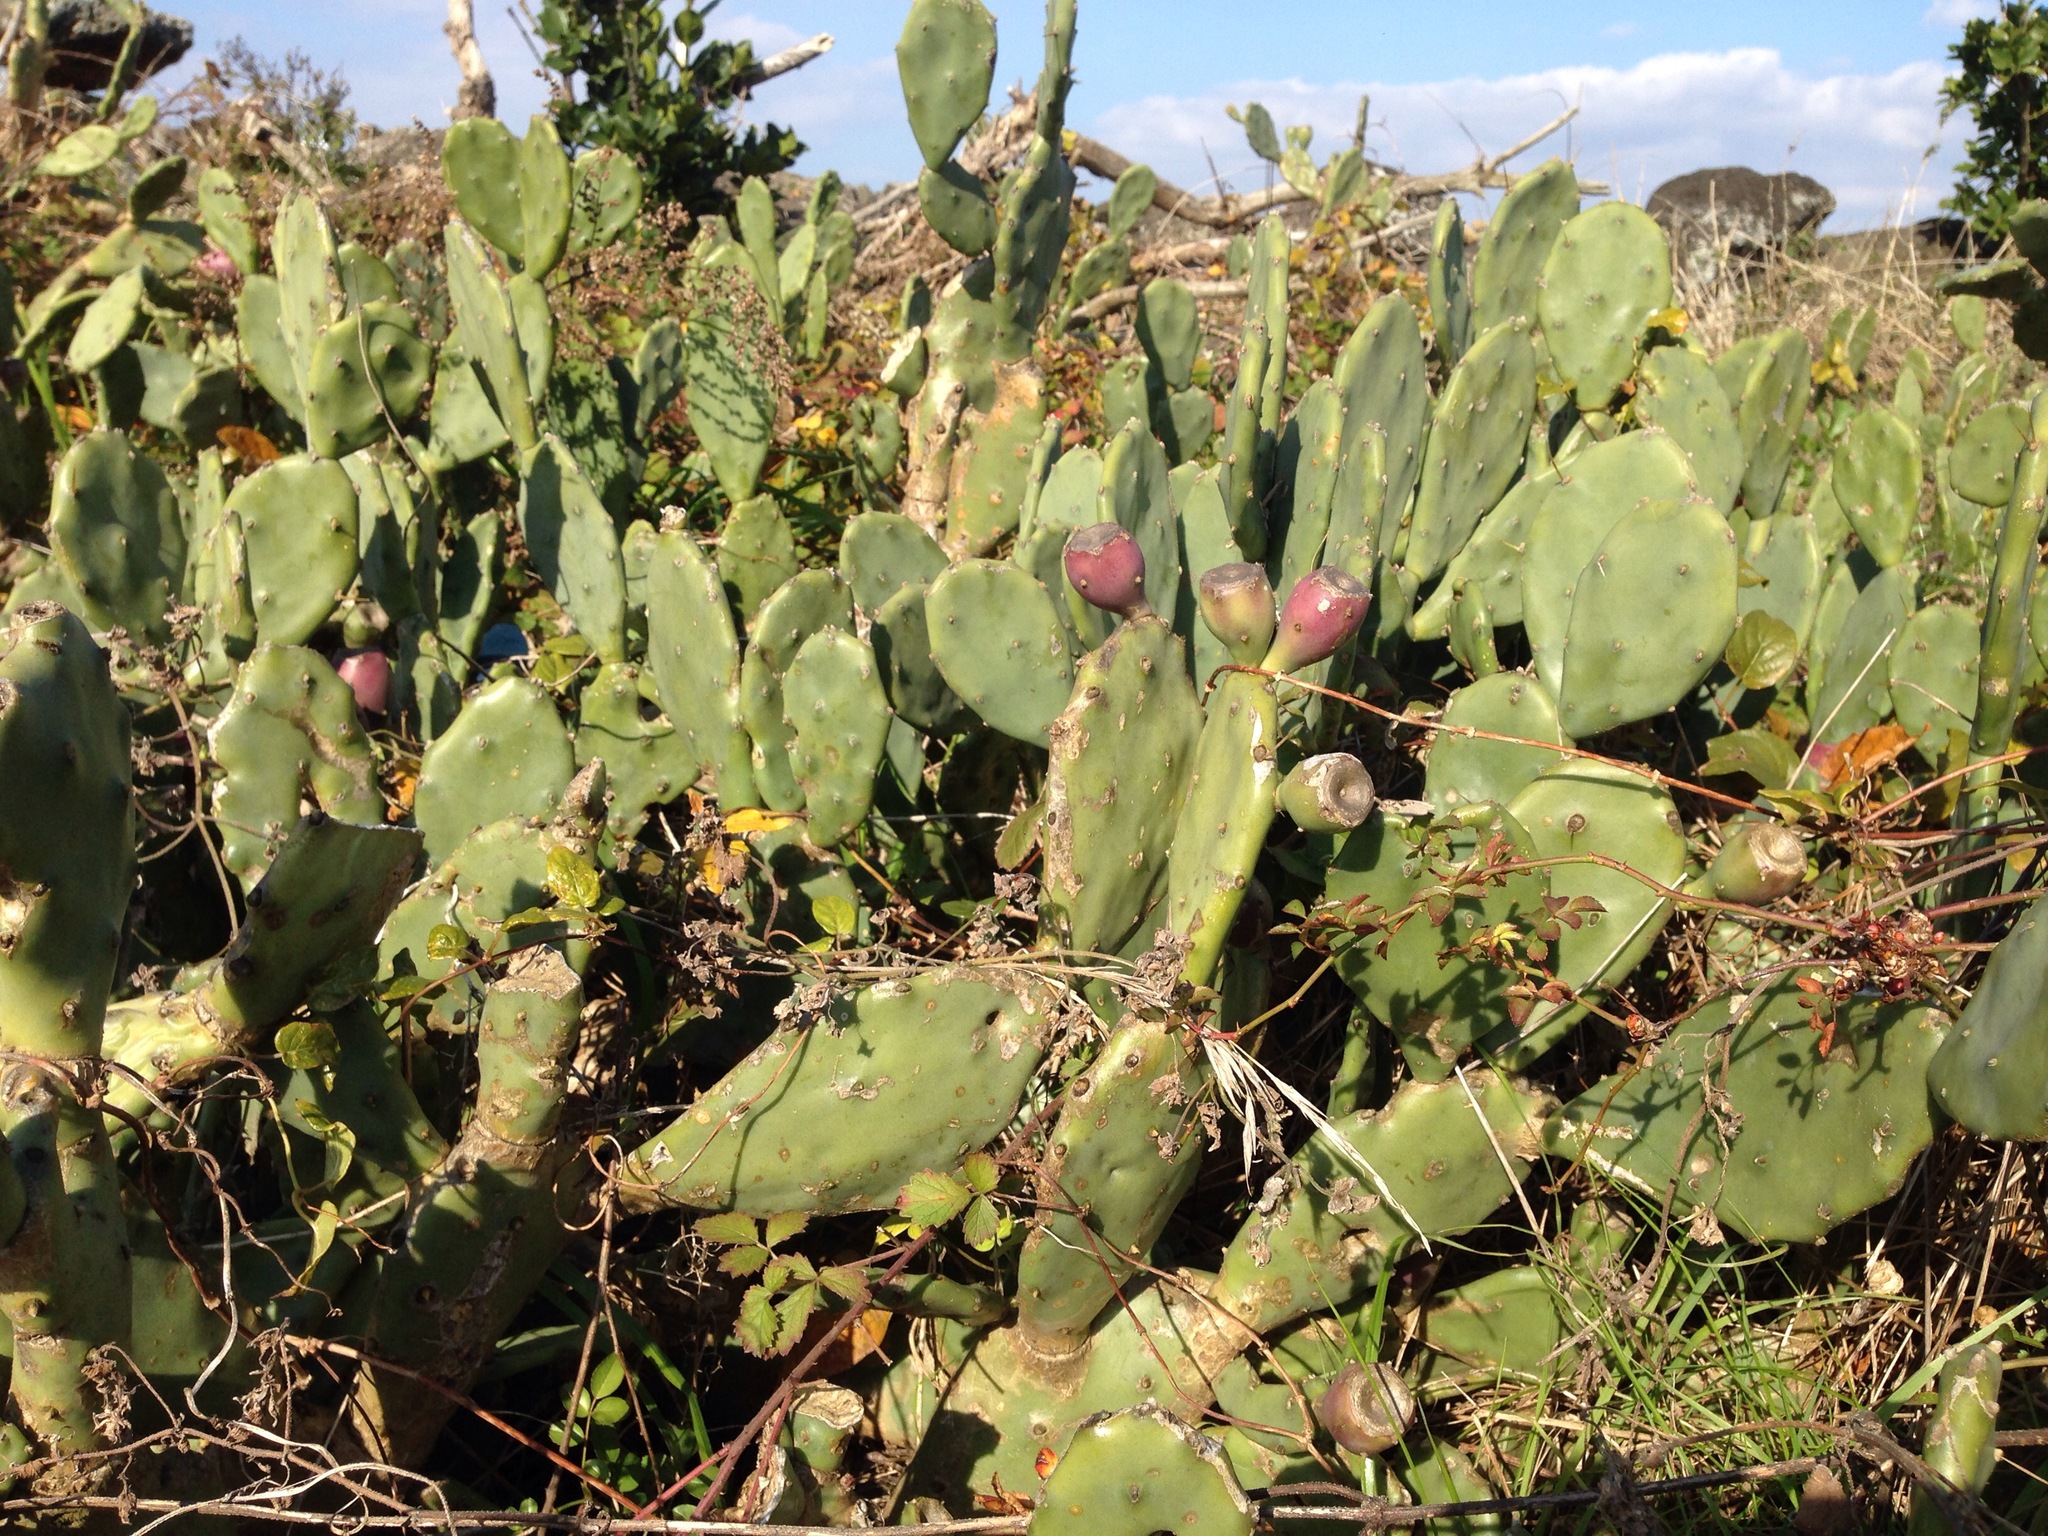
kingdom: Plantae
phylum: Tracheophyta
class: Magnoliopsida
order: Caryophyllales
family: Cactaceae
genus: Opuntia
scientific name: Opuntia stricta
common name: Erect pricklypear
